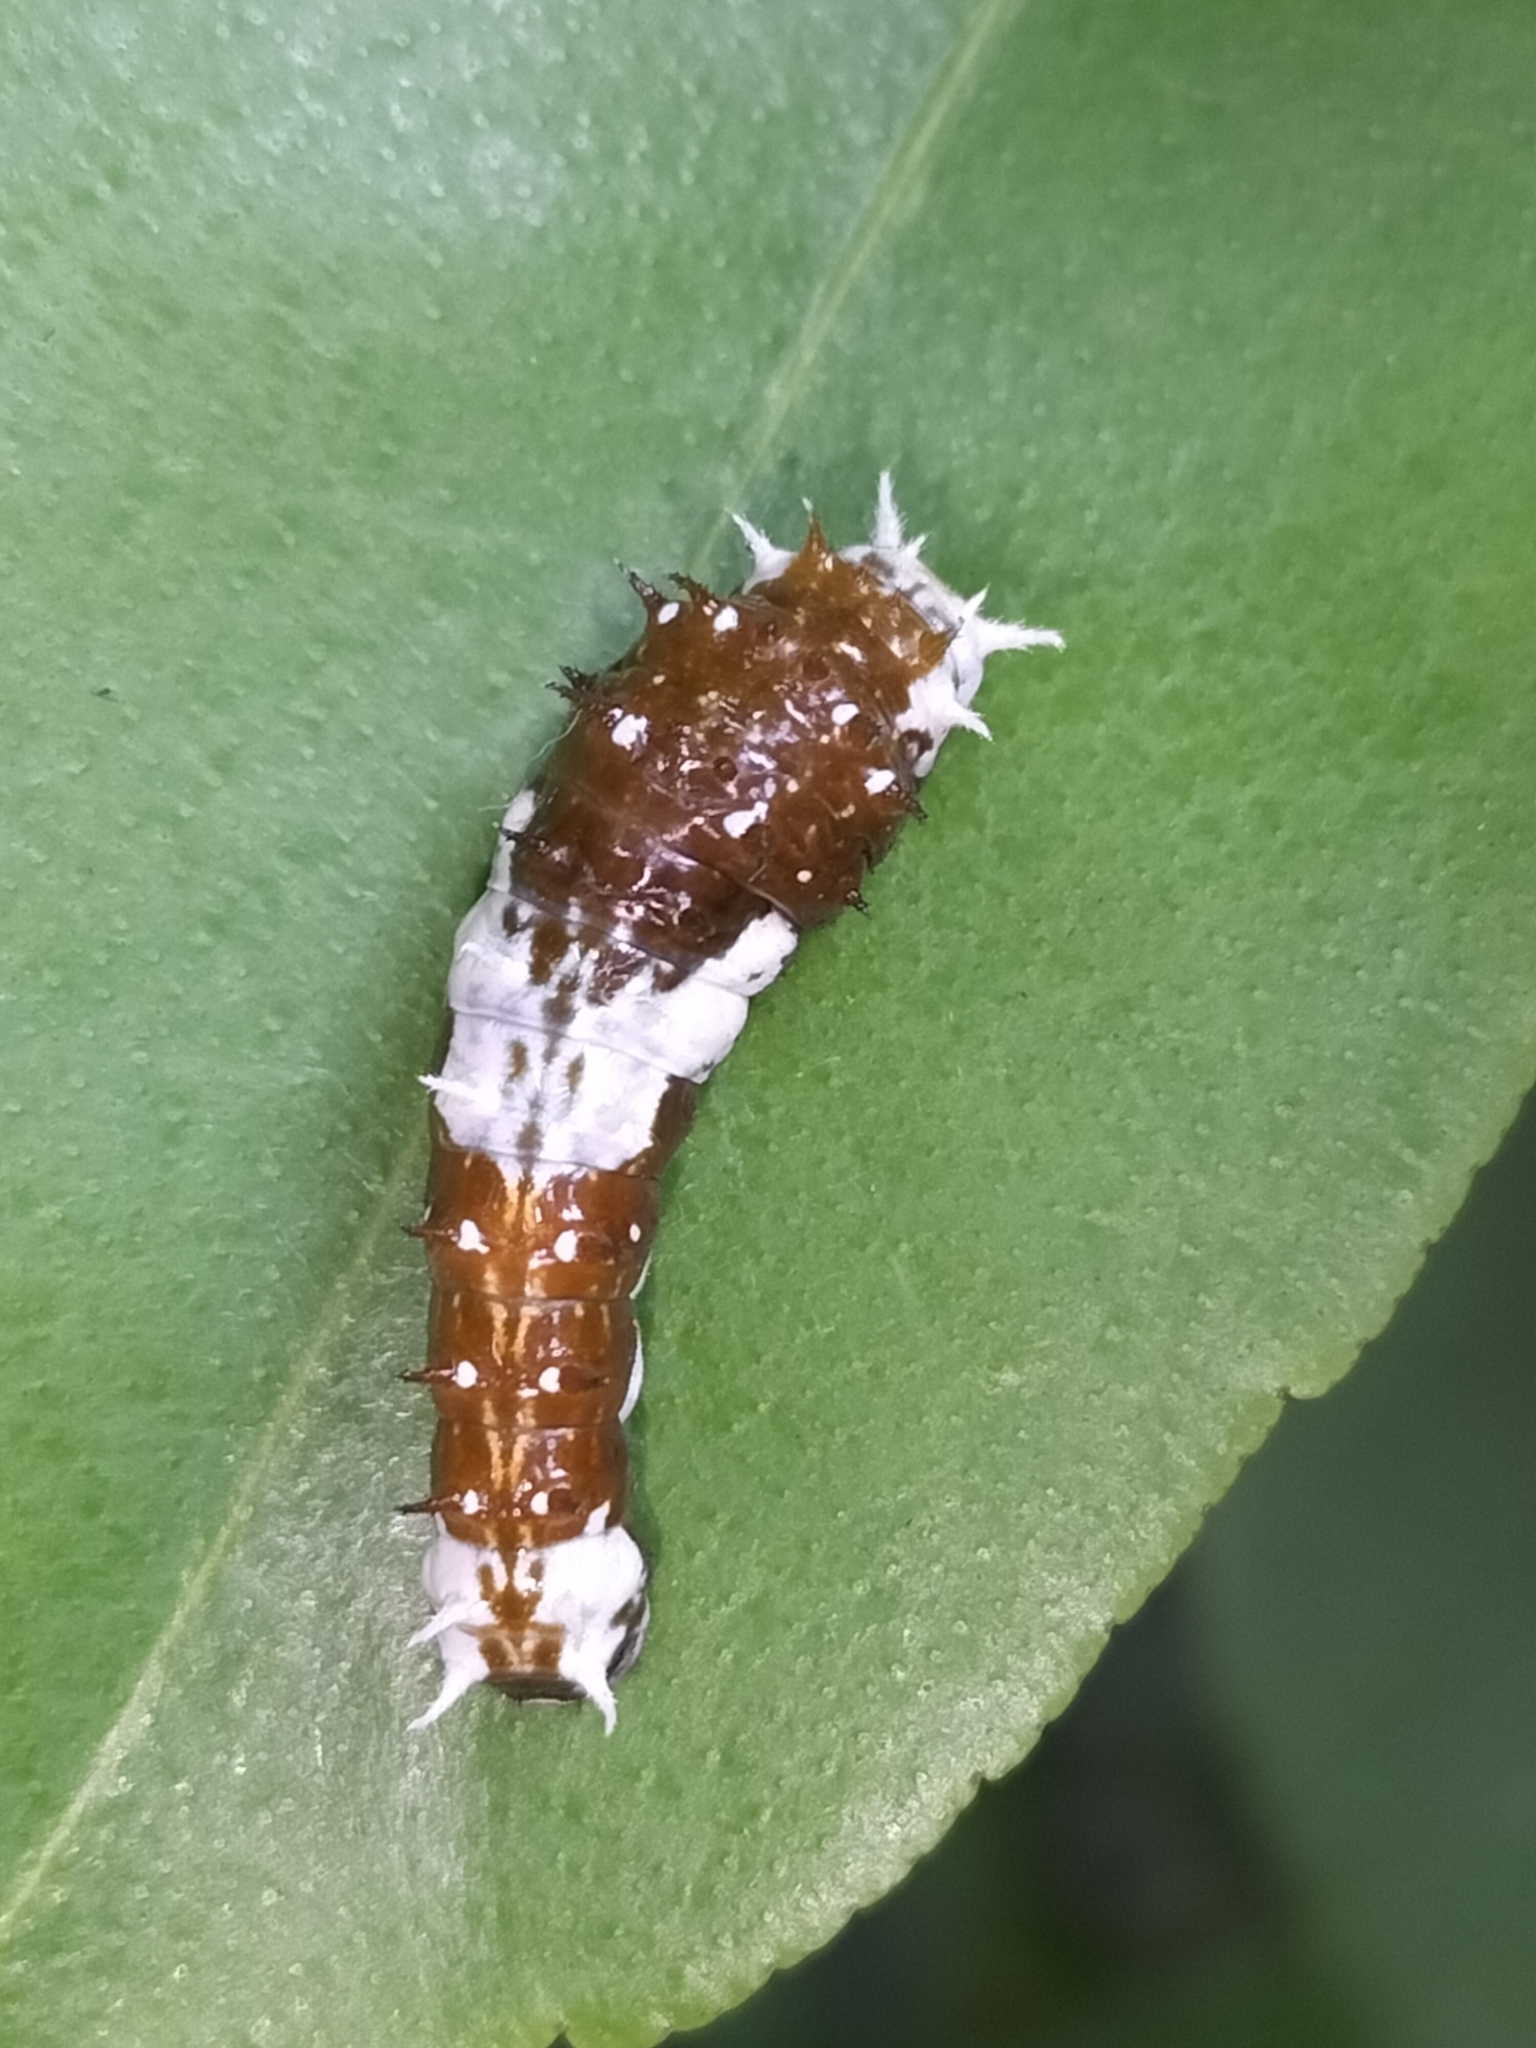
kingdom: Animalia
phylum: Arthropoda
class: Insecta
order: Lepidoptera
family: Papilionidae
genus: Papilio
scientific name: Papilio aegeus
